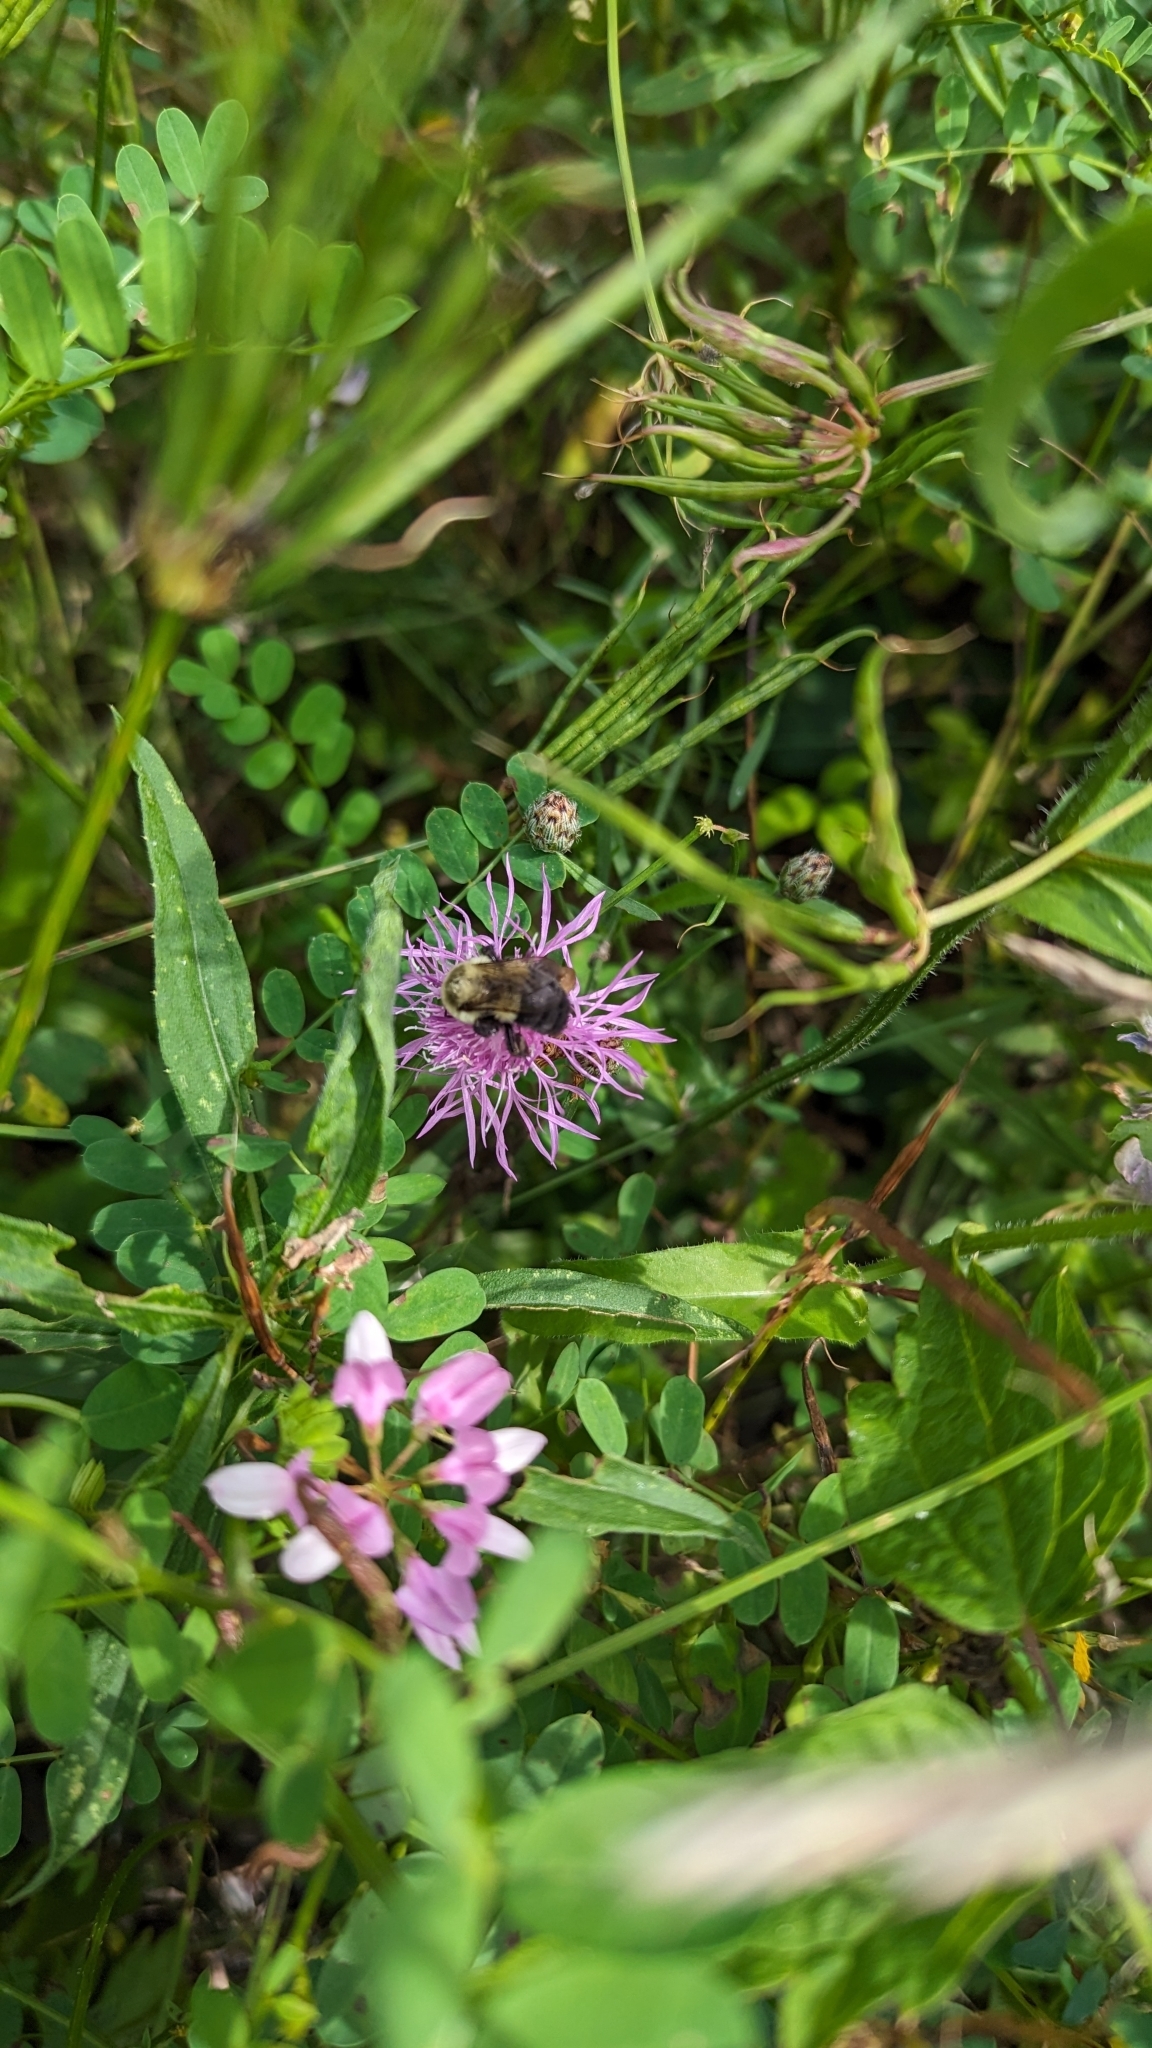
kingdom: Animalia
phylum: Arthropoda
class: Insecta
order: Hymenoptera
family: Apidae
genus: Bombus
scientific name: Bombus impatiens
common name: Common eastern bumble bee
